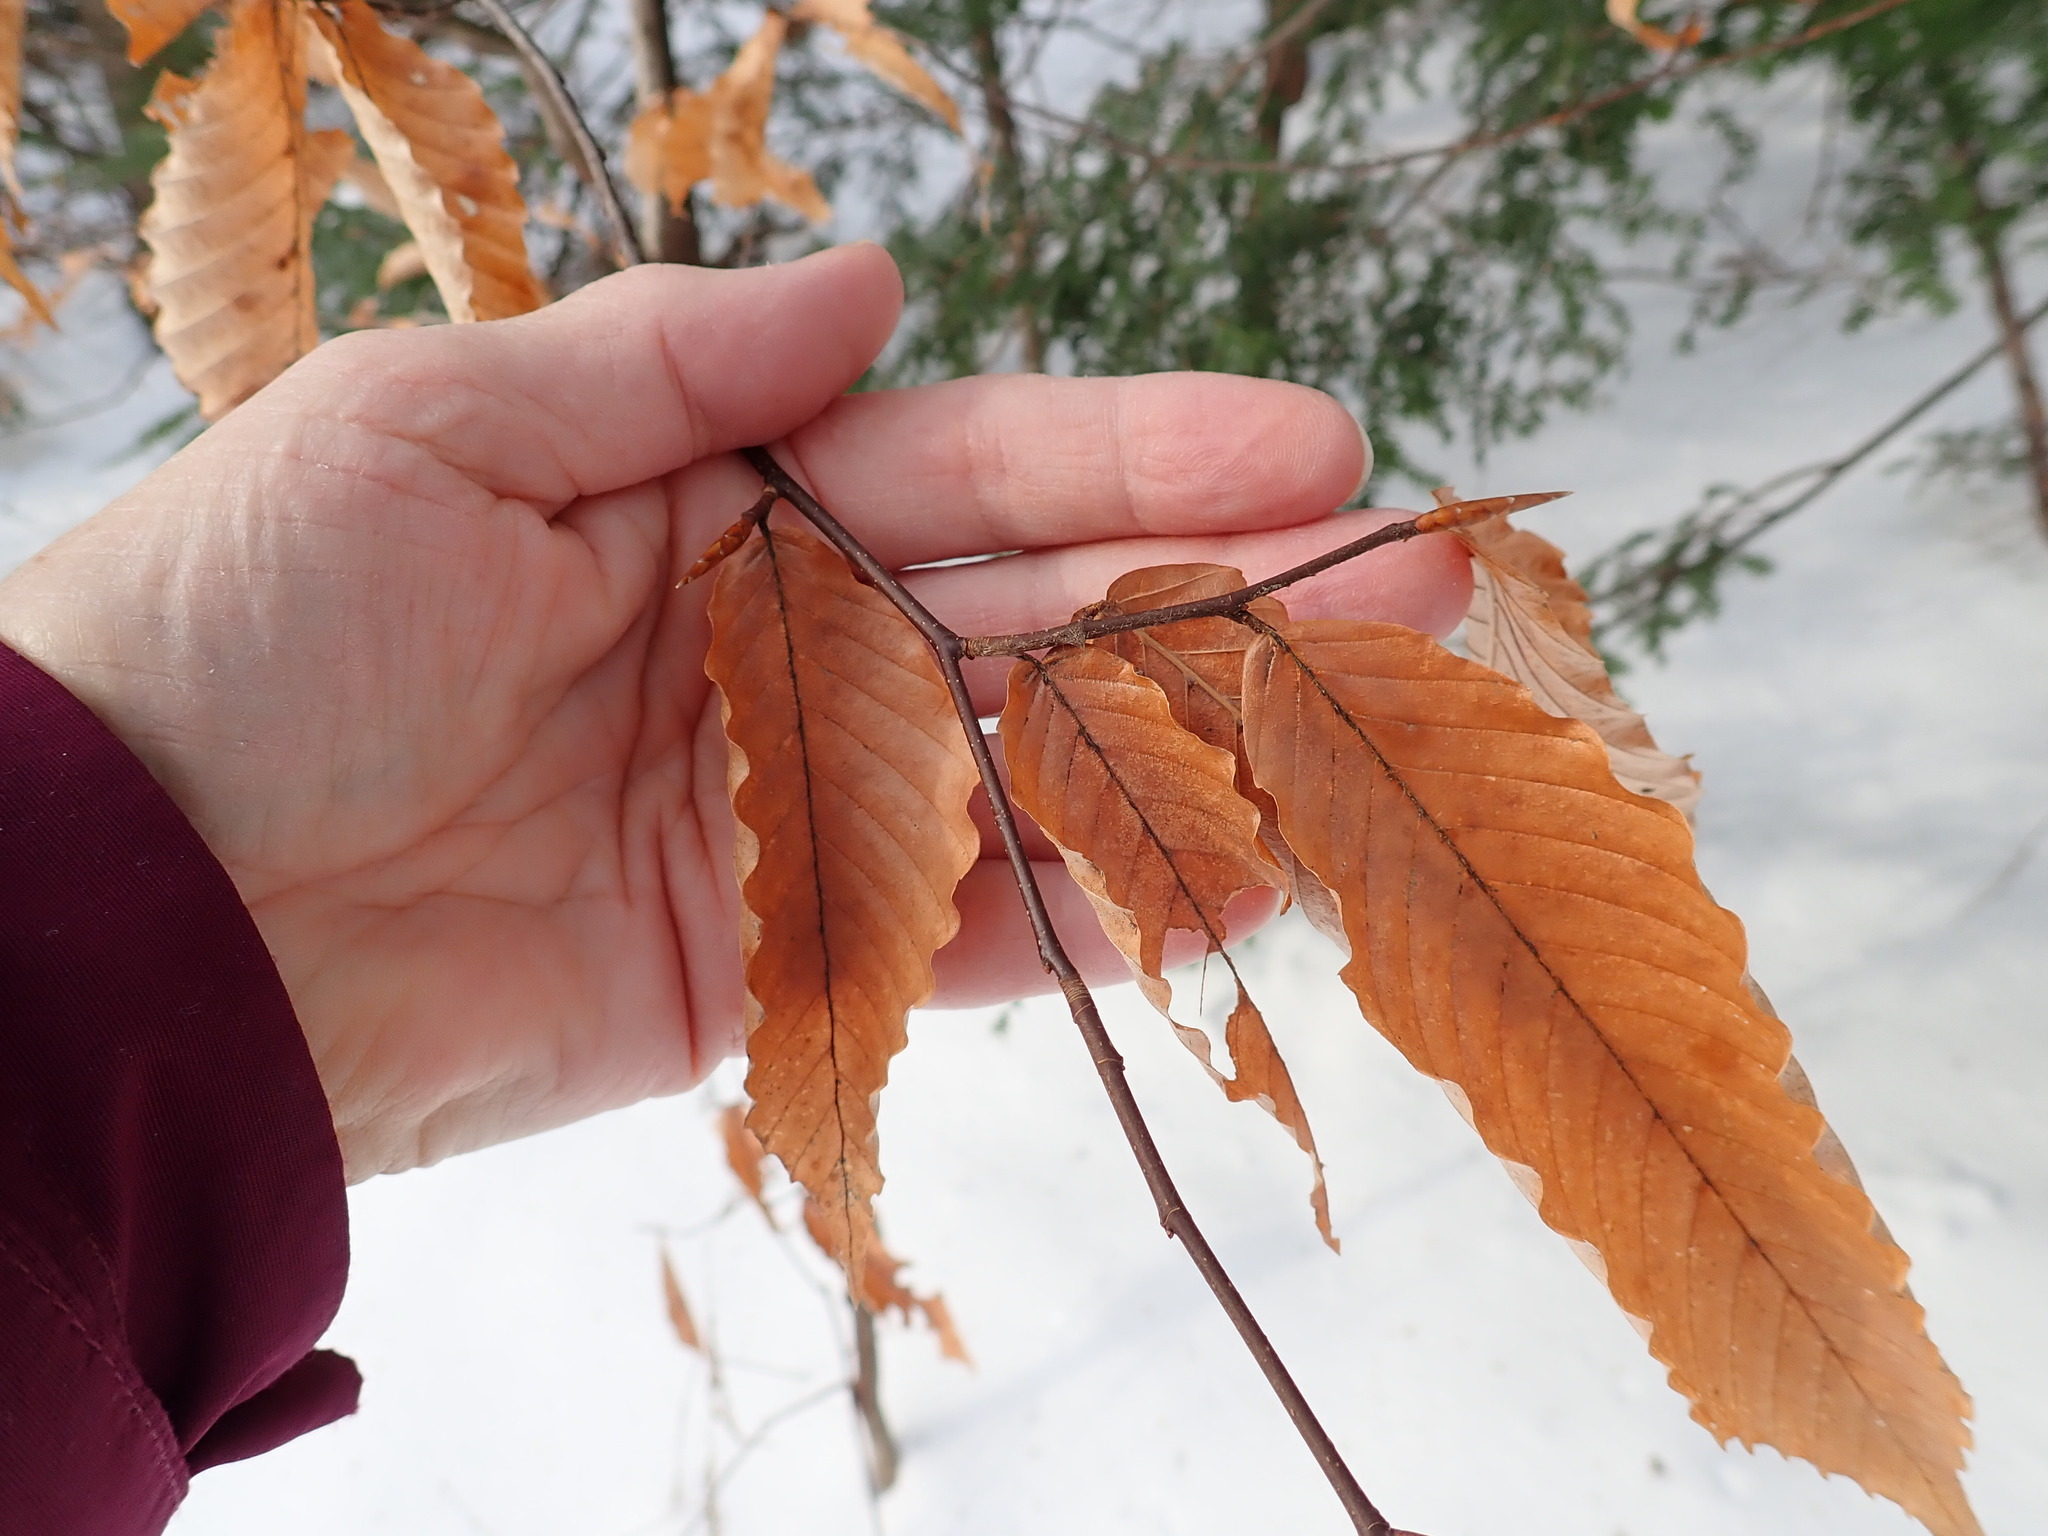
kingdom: Plantae
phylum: Tracheophyta
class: Magnoliopsida
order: Fagales
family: Fagaceae
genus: Fagus
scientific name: Fagus grandifolia
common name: American beech
